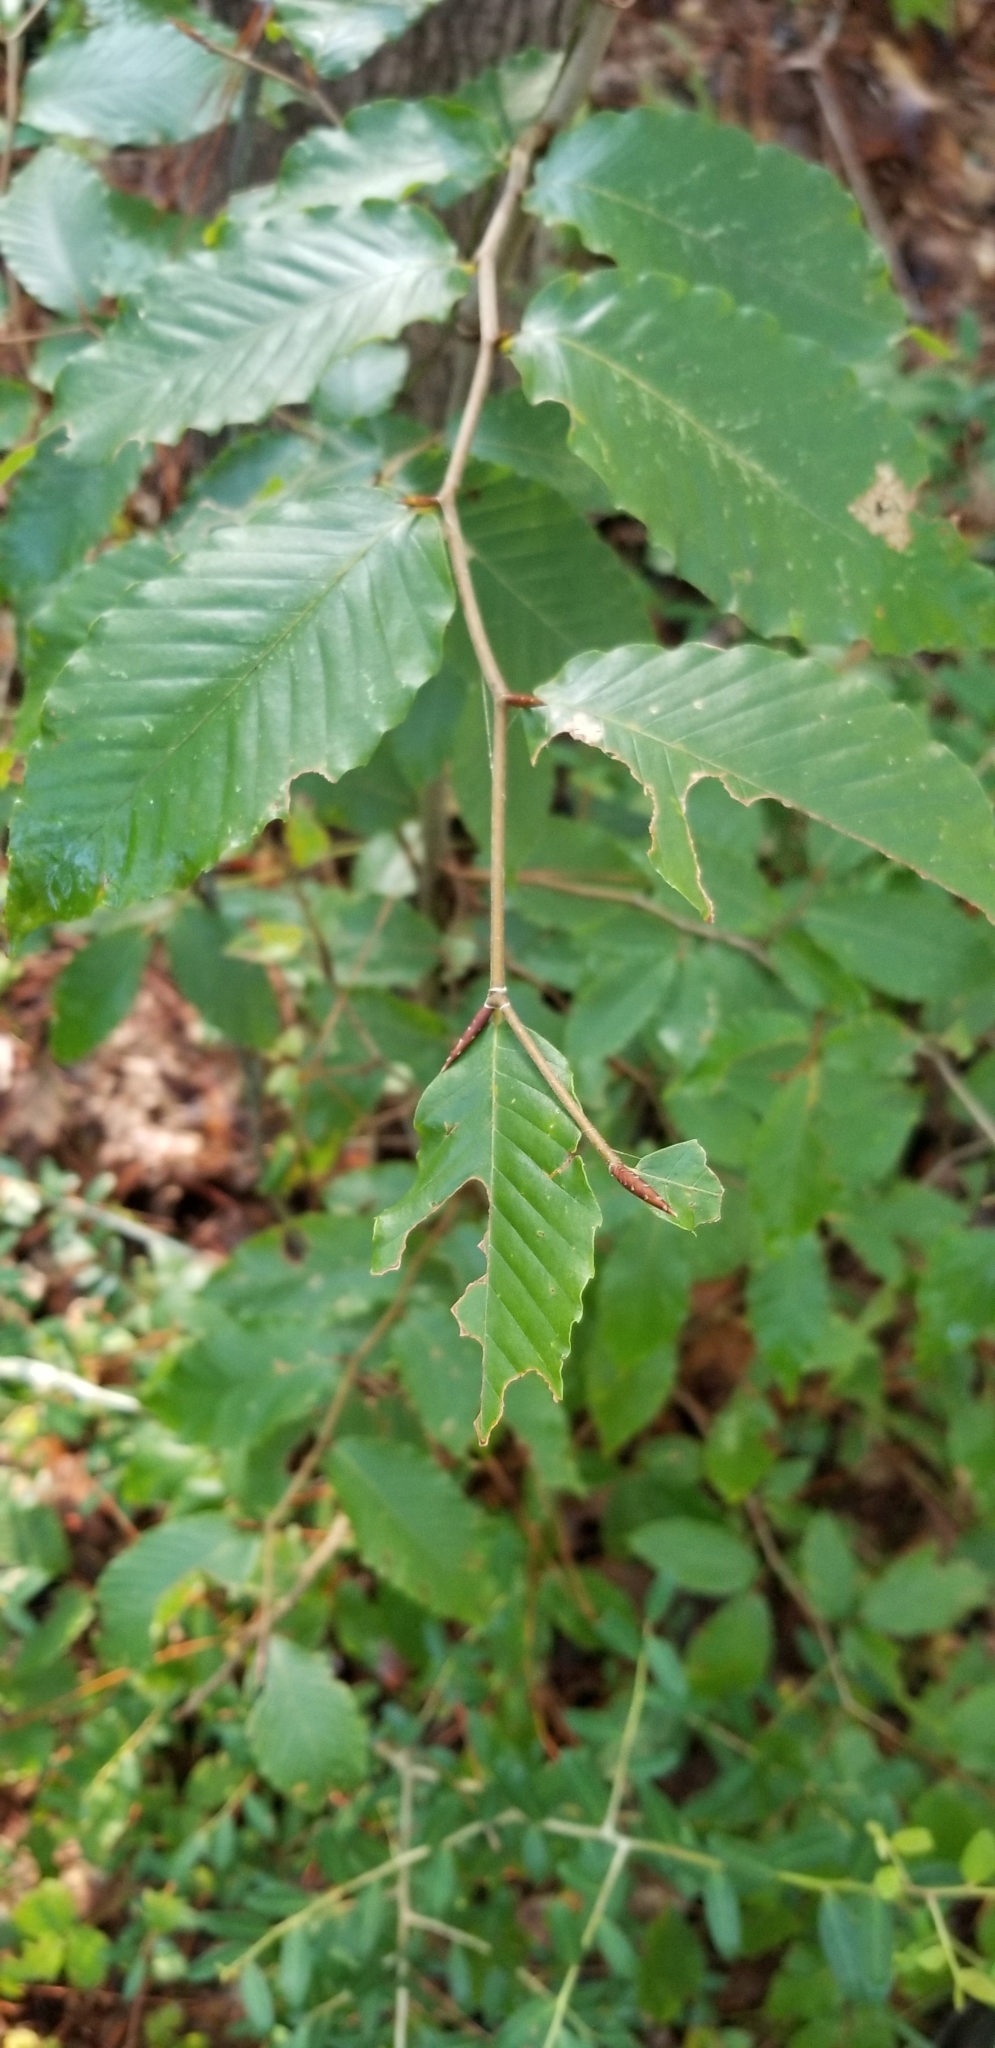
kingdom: Plantae
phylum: Tracheophyta
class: Magnoliopsida
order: Fagales
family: Fagaceae
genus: Fagus
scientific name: Fagus grandifolia
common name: American beech
